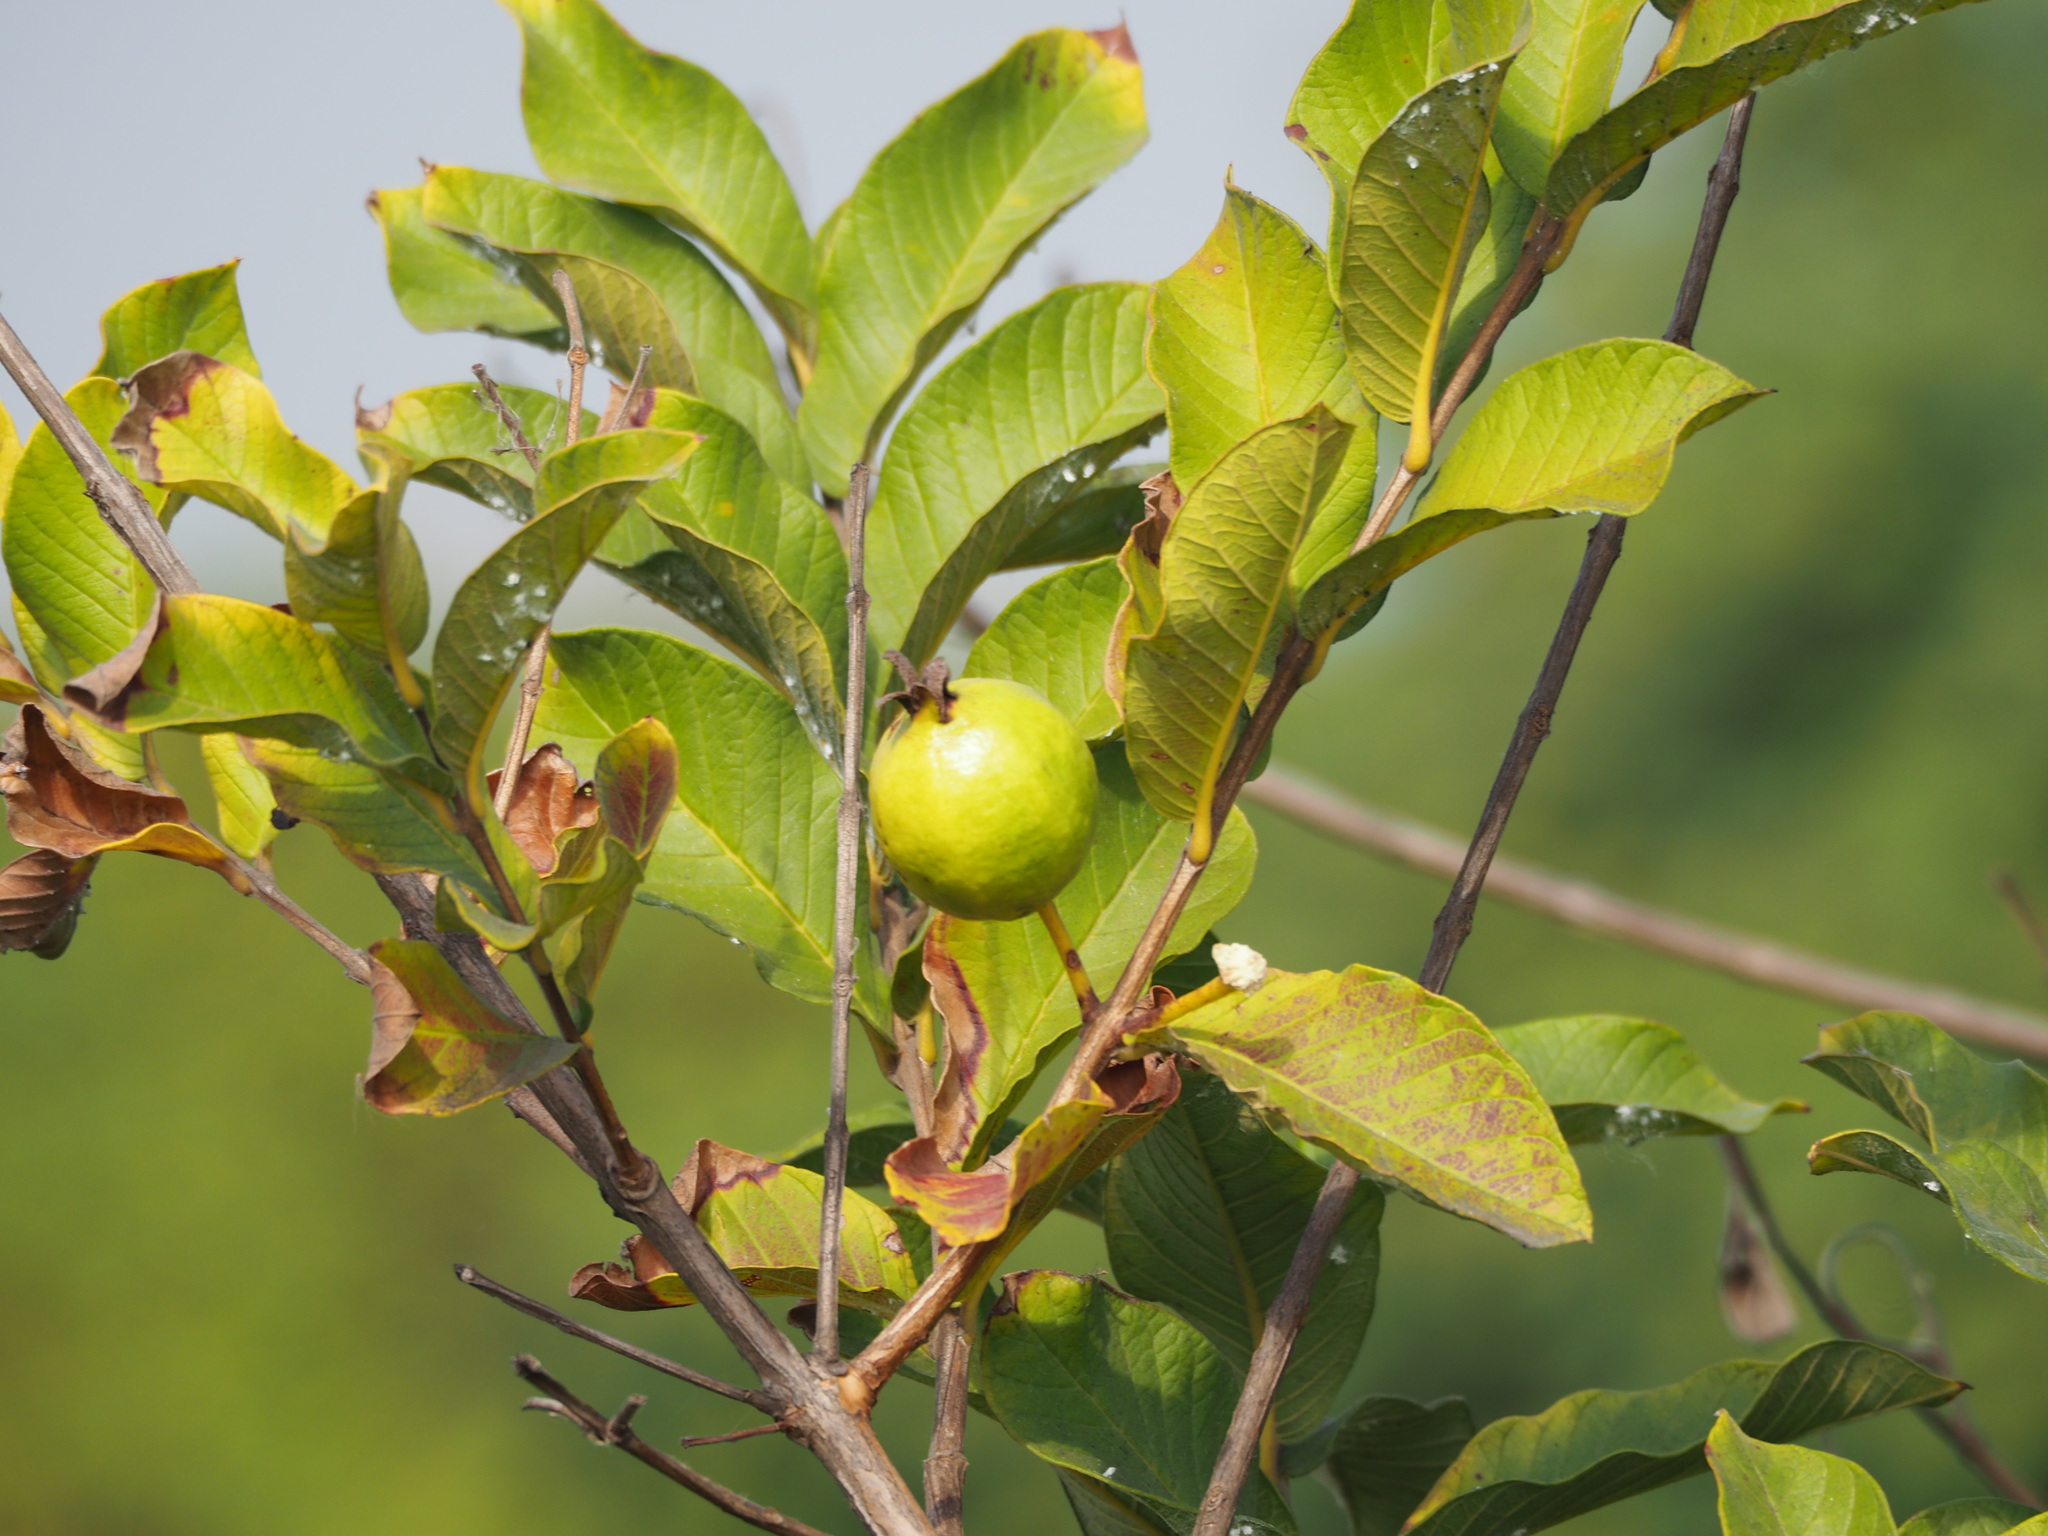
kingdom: Plantae
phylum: Tracheophyta
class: Magnoliopsida
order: Myrtales
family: Myrtaceae
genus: Psidium
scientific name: Psidium guajava
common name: Guava
